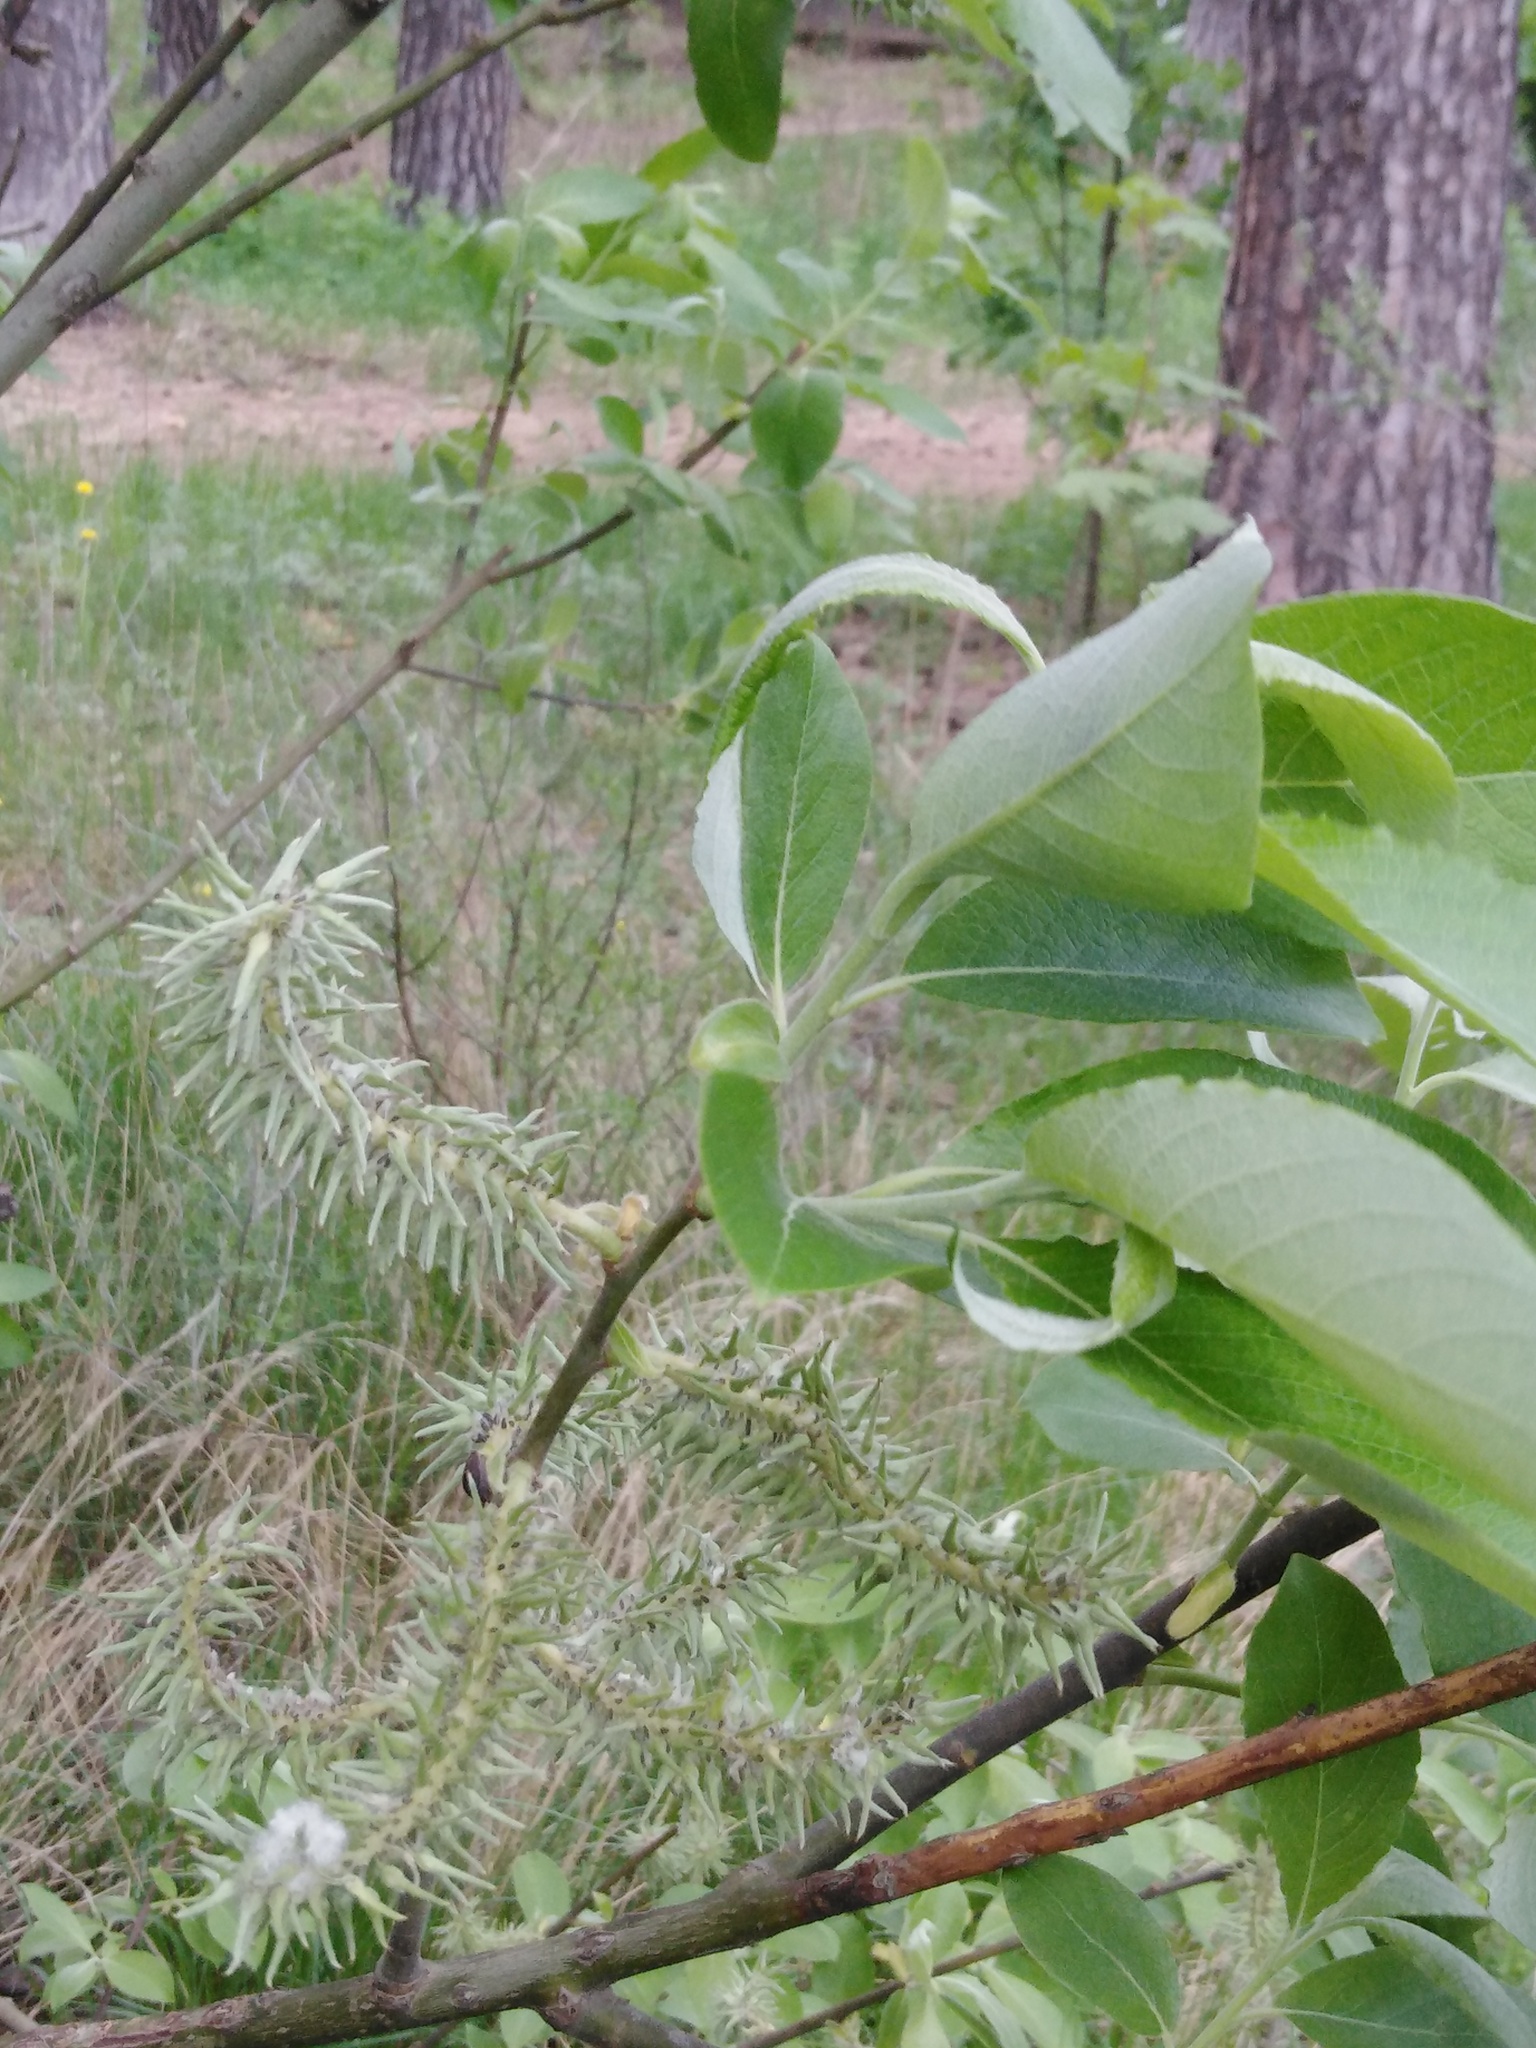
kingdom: Plantae
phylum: Tracheophyta
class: Magnoliopsida
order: Malpighiales
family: Salicaceae
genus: Salix
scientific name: Salix caprea
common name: Goat willow
